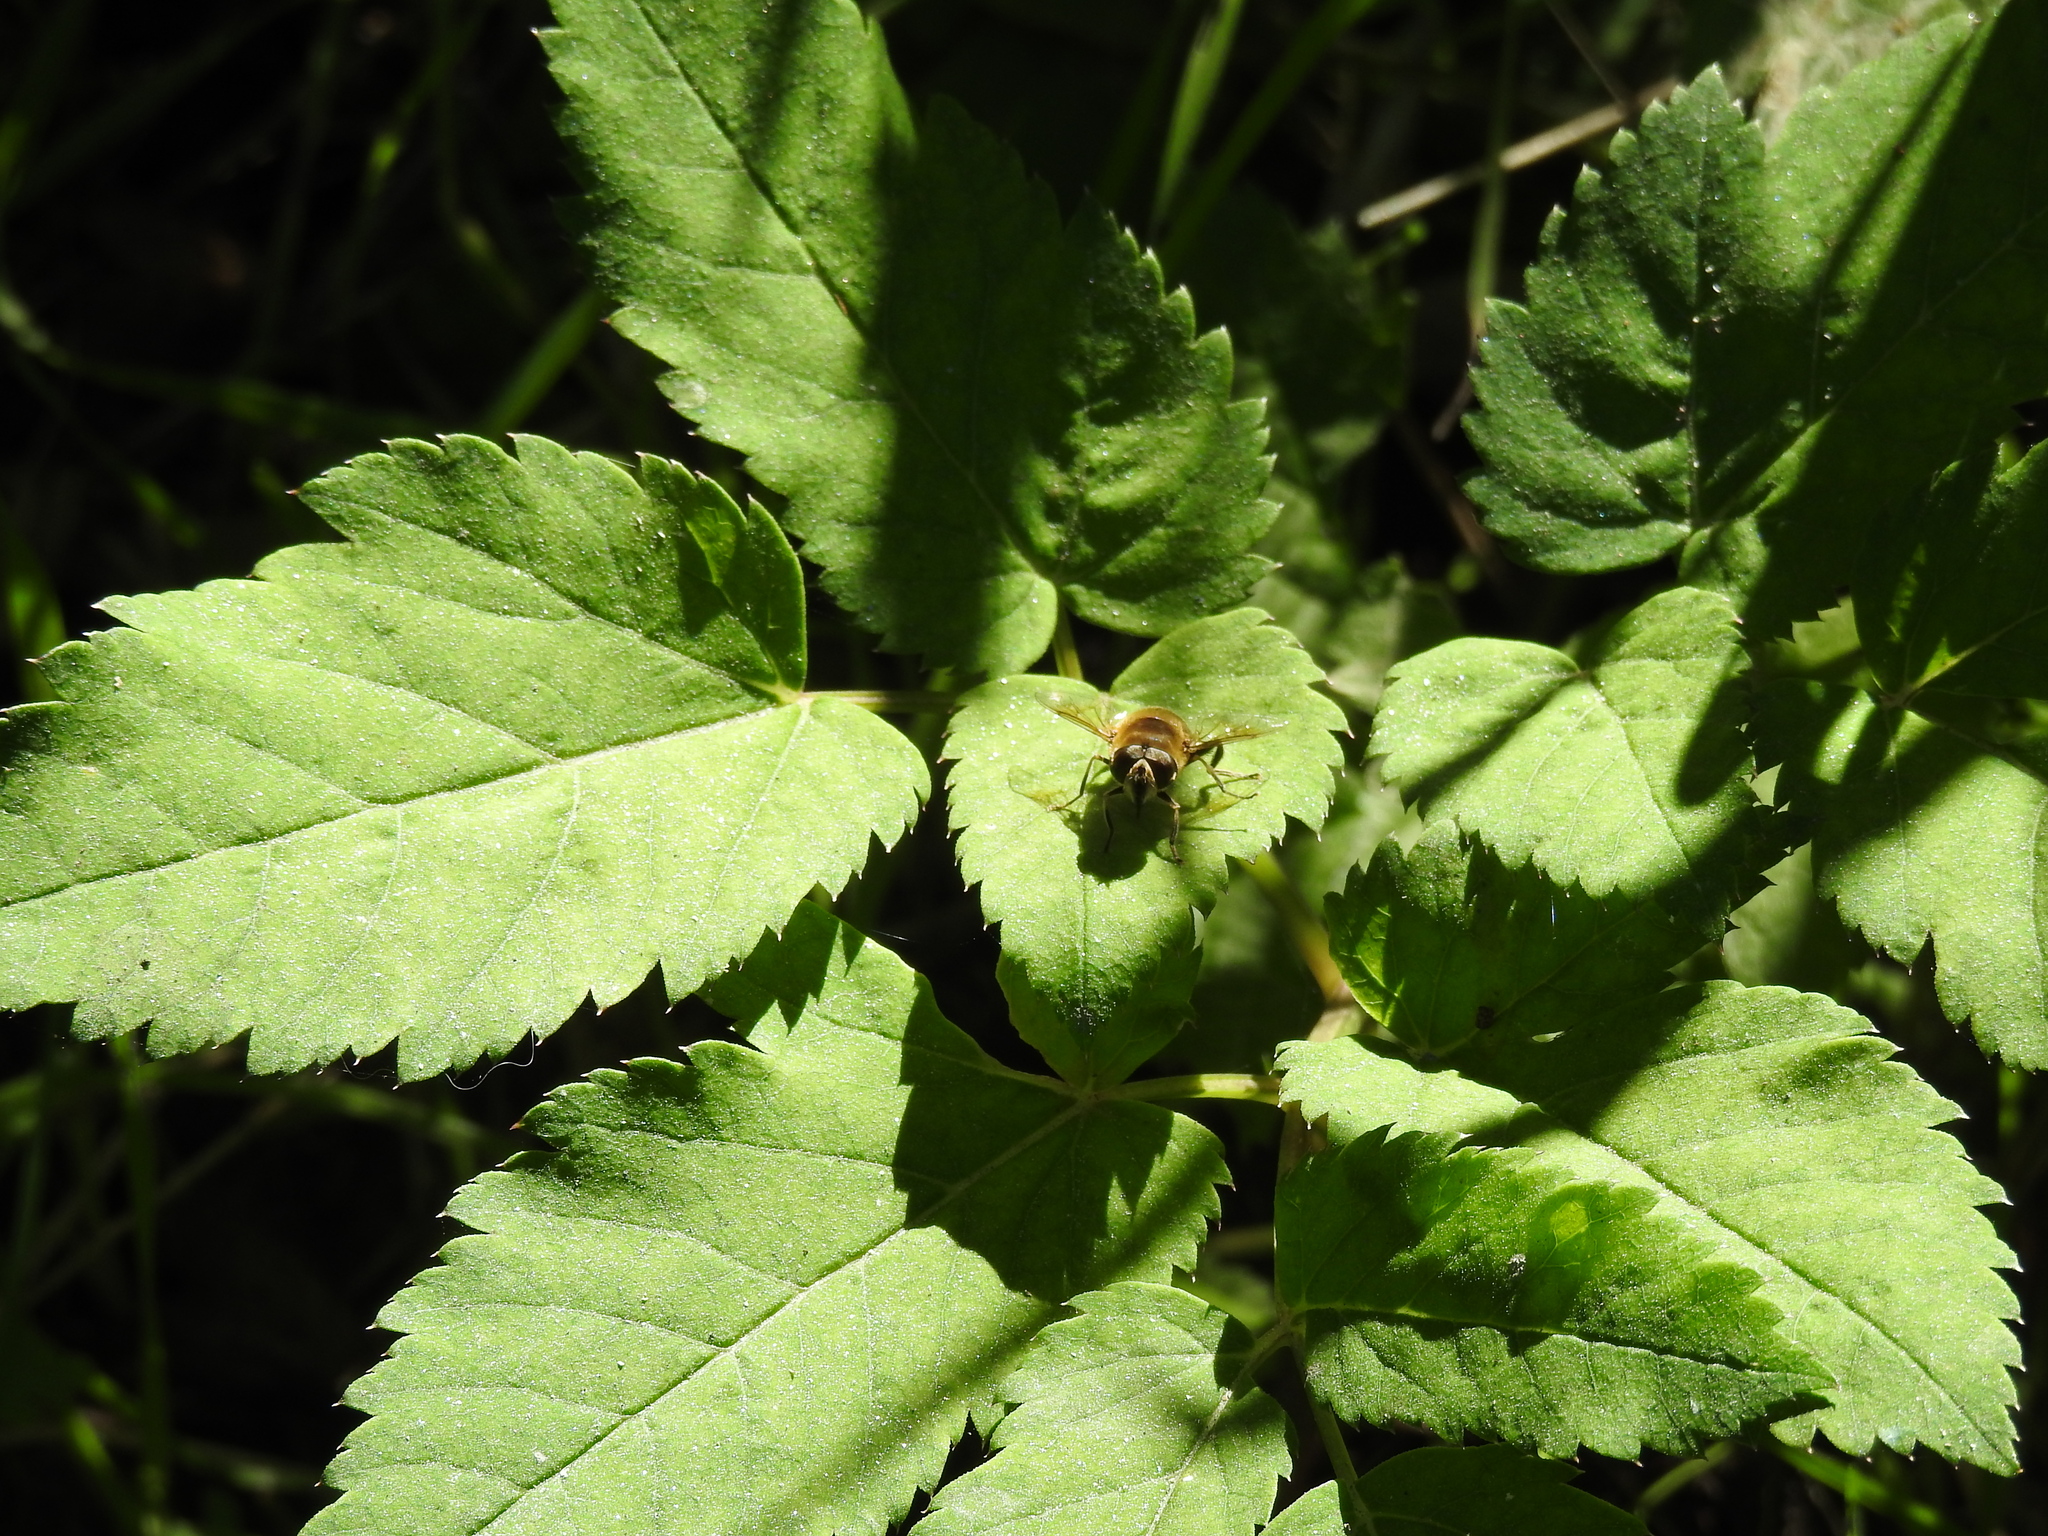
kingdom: Animalia
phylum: Arthropoda
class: Insecta
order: Diptera
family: Syrphidae
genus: Eristalis
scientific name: Eristalis tenax
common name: Drone fly
